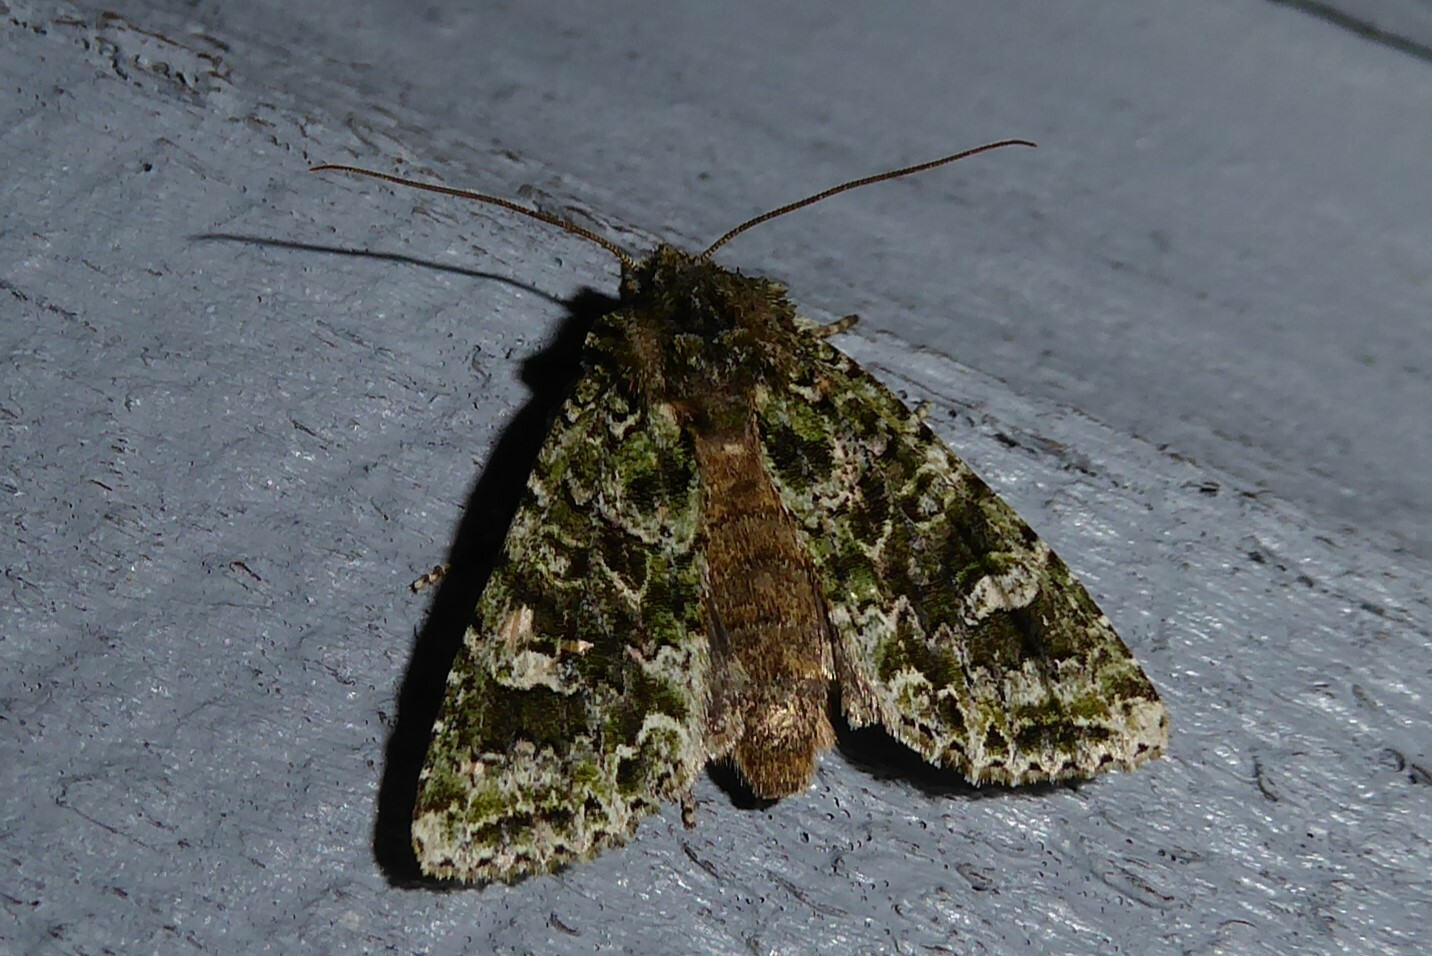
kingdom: Animalia
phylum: Arthropoda
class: Insecta
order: Lepidoptera
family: Noctuidae
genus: Ichneutica
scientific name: Ichneutica
